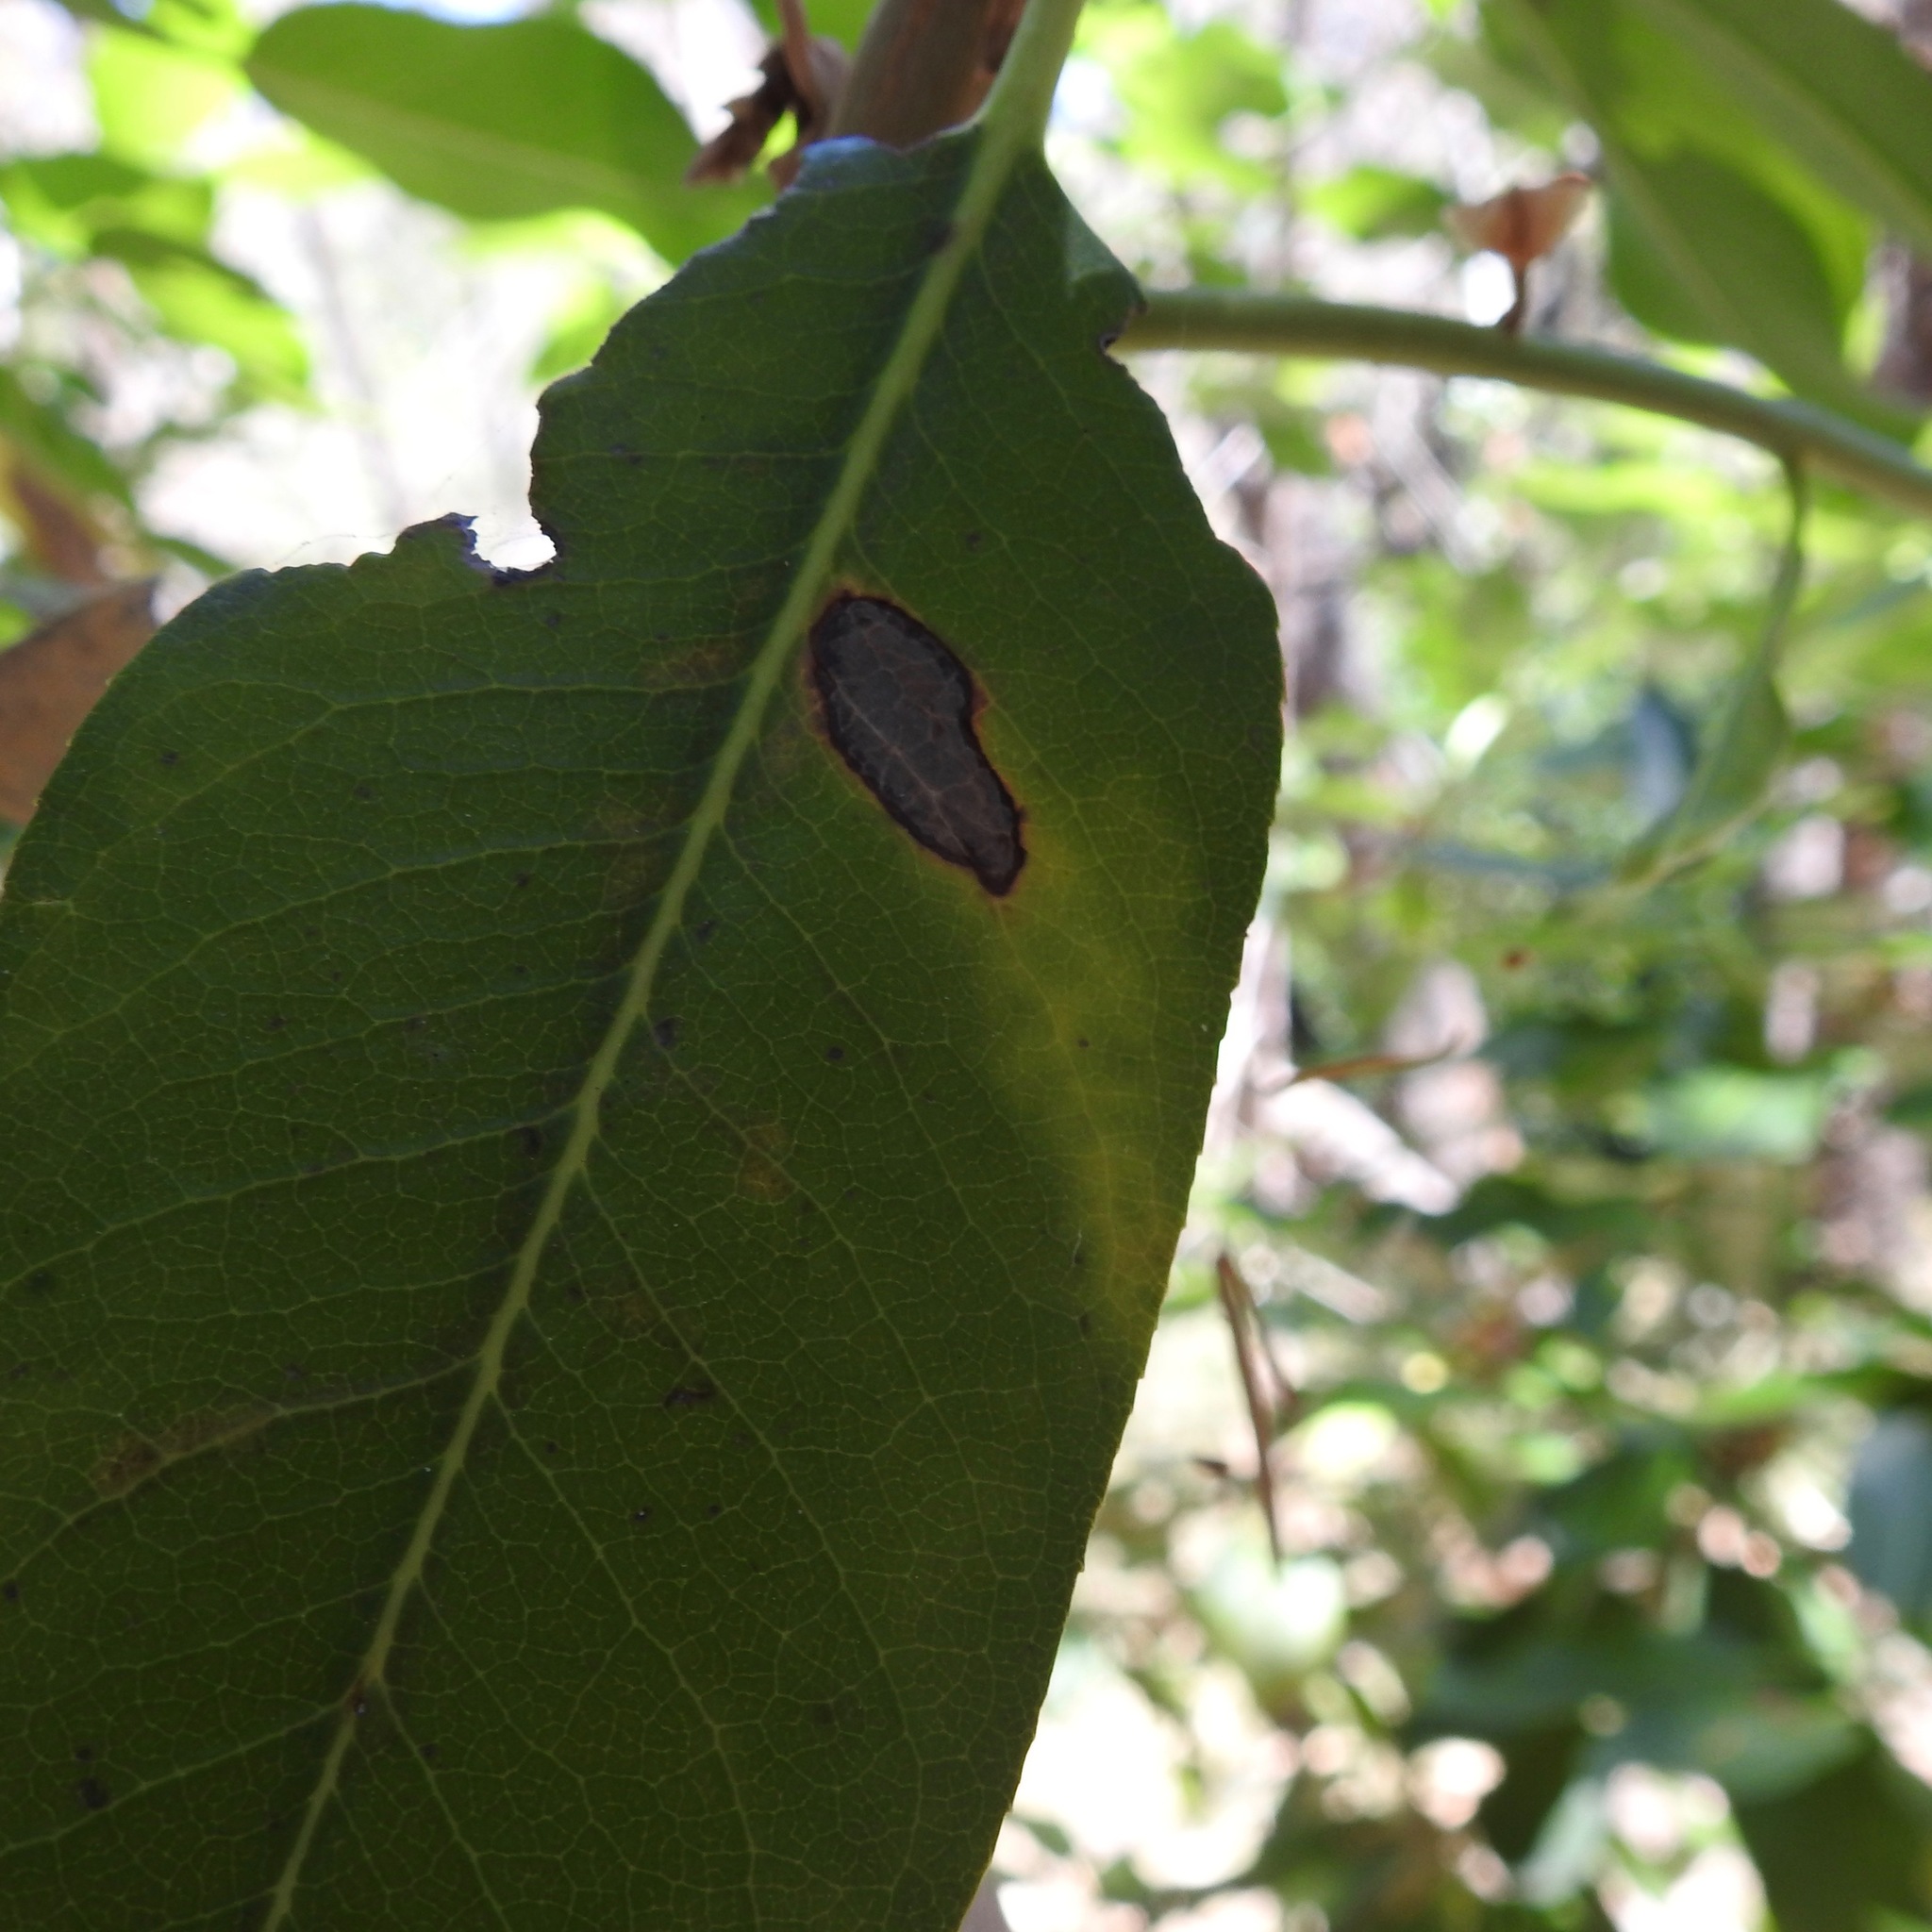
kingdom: Plantae
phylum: Tracheophyta
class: Magnoliopsida
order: Ericales
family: Ericaceae
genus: Arbutus
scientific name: Arbutus menziesii
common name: Pacific madrone
